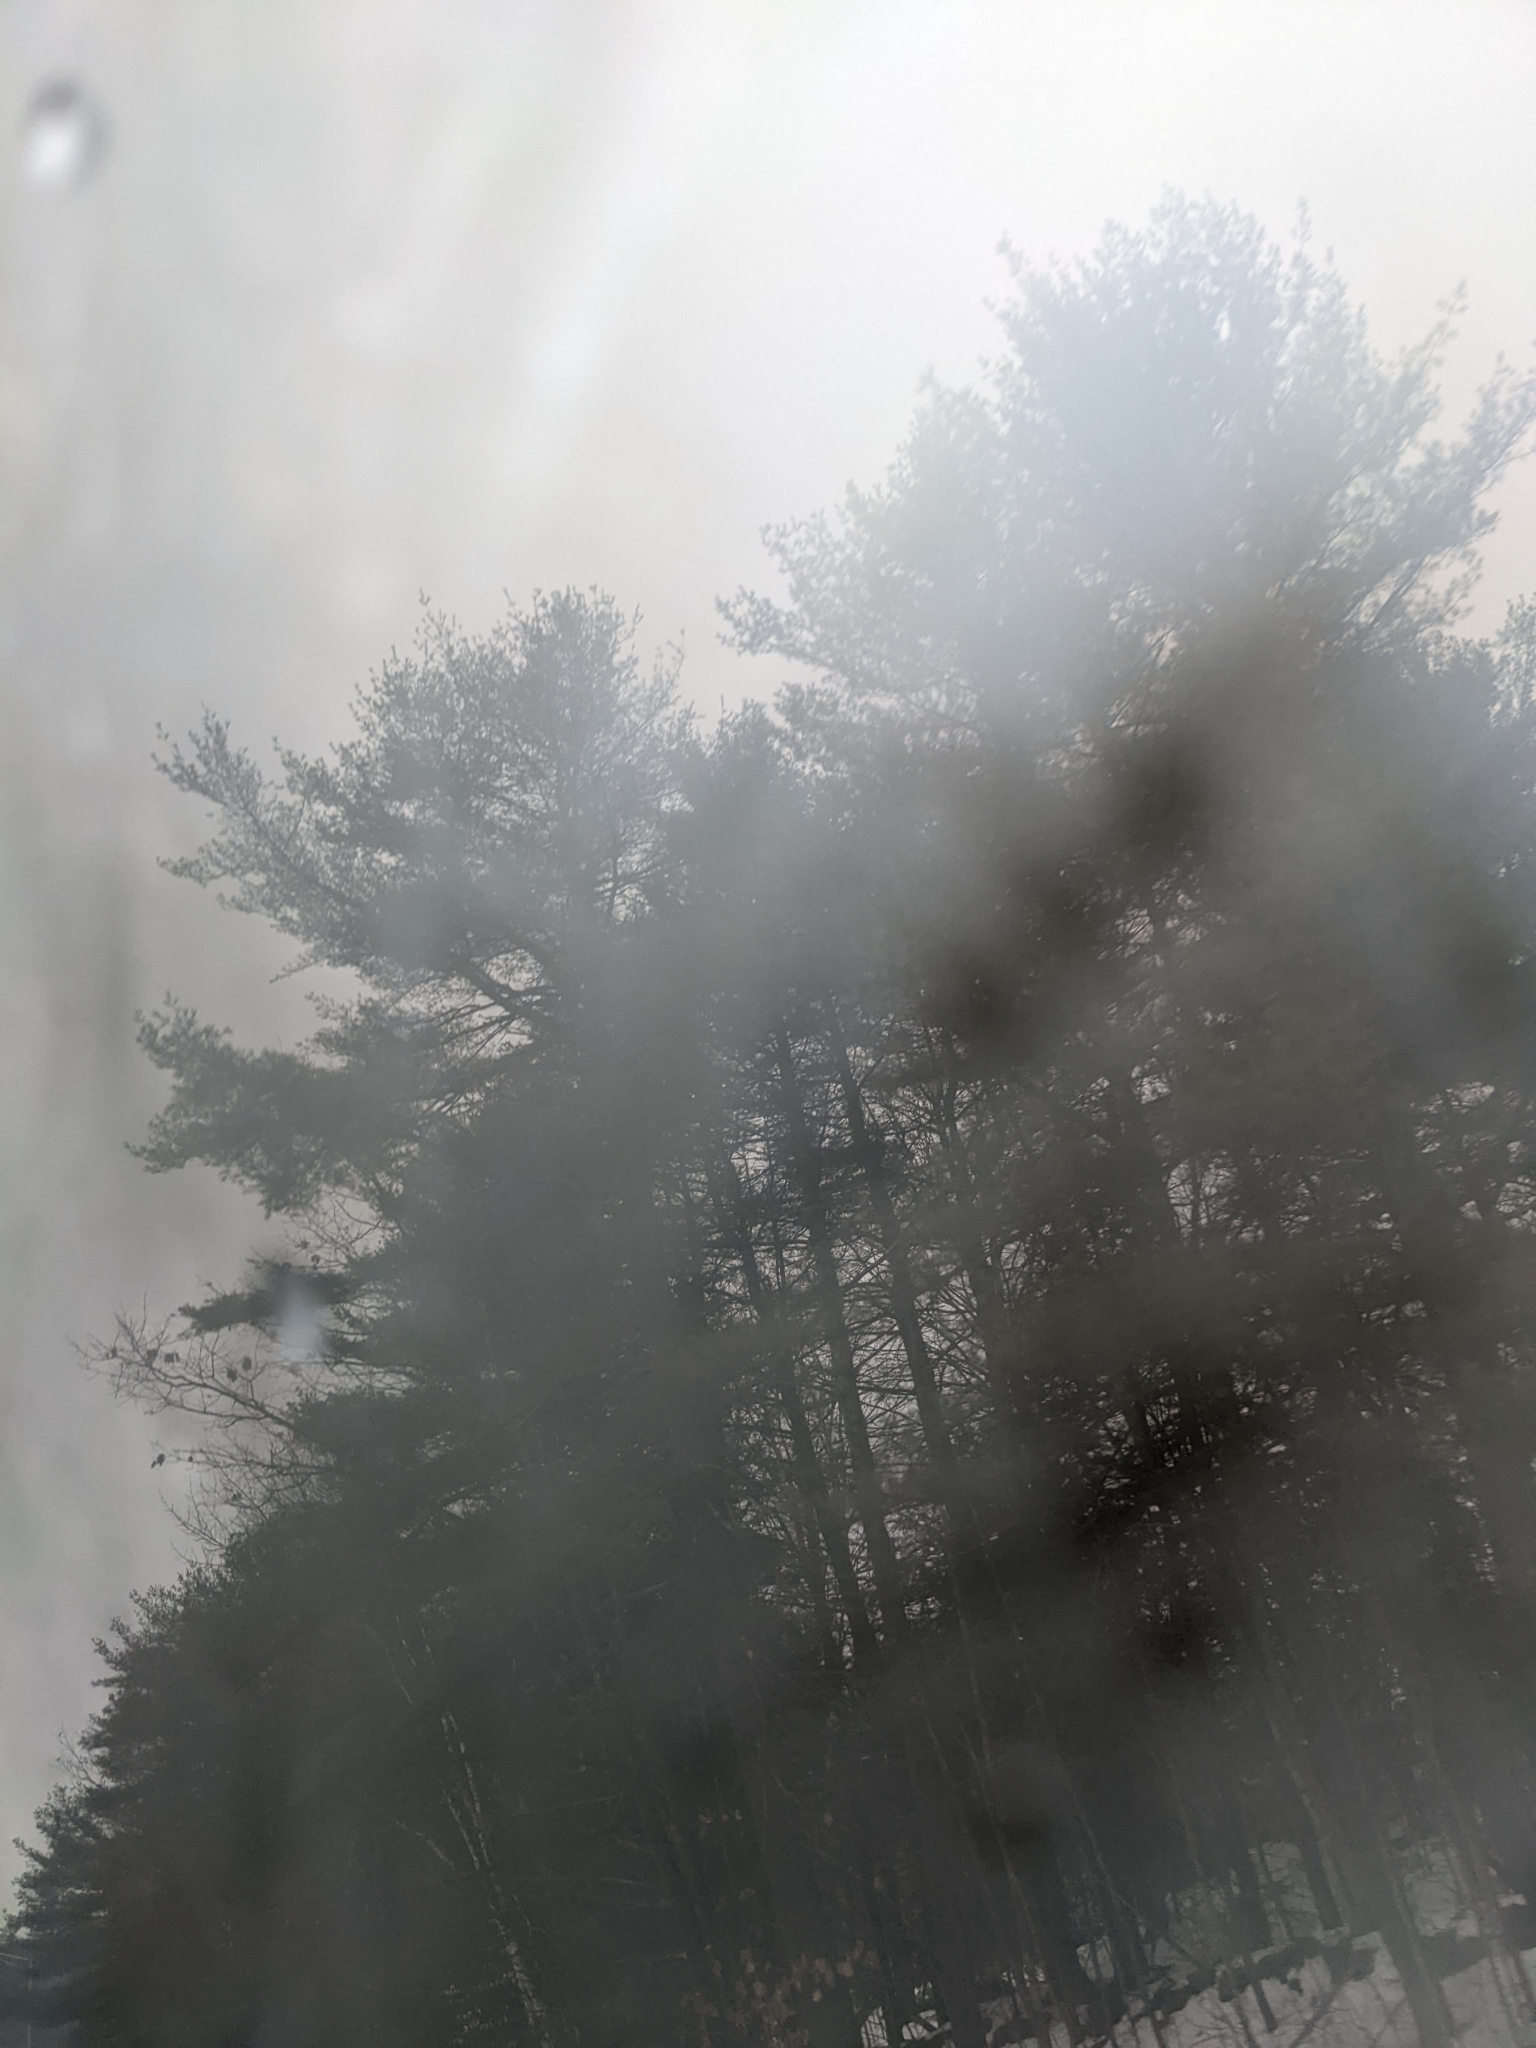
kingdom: Plantae
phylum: Tracheophyta
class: Pinopsida
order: Pinales
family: Pinaceae
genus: Pinus
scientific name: Pinus strobus
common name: Weymouth pine
